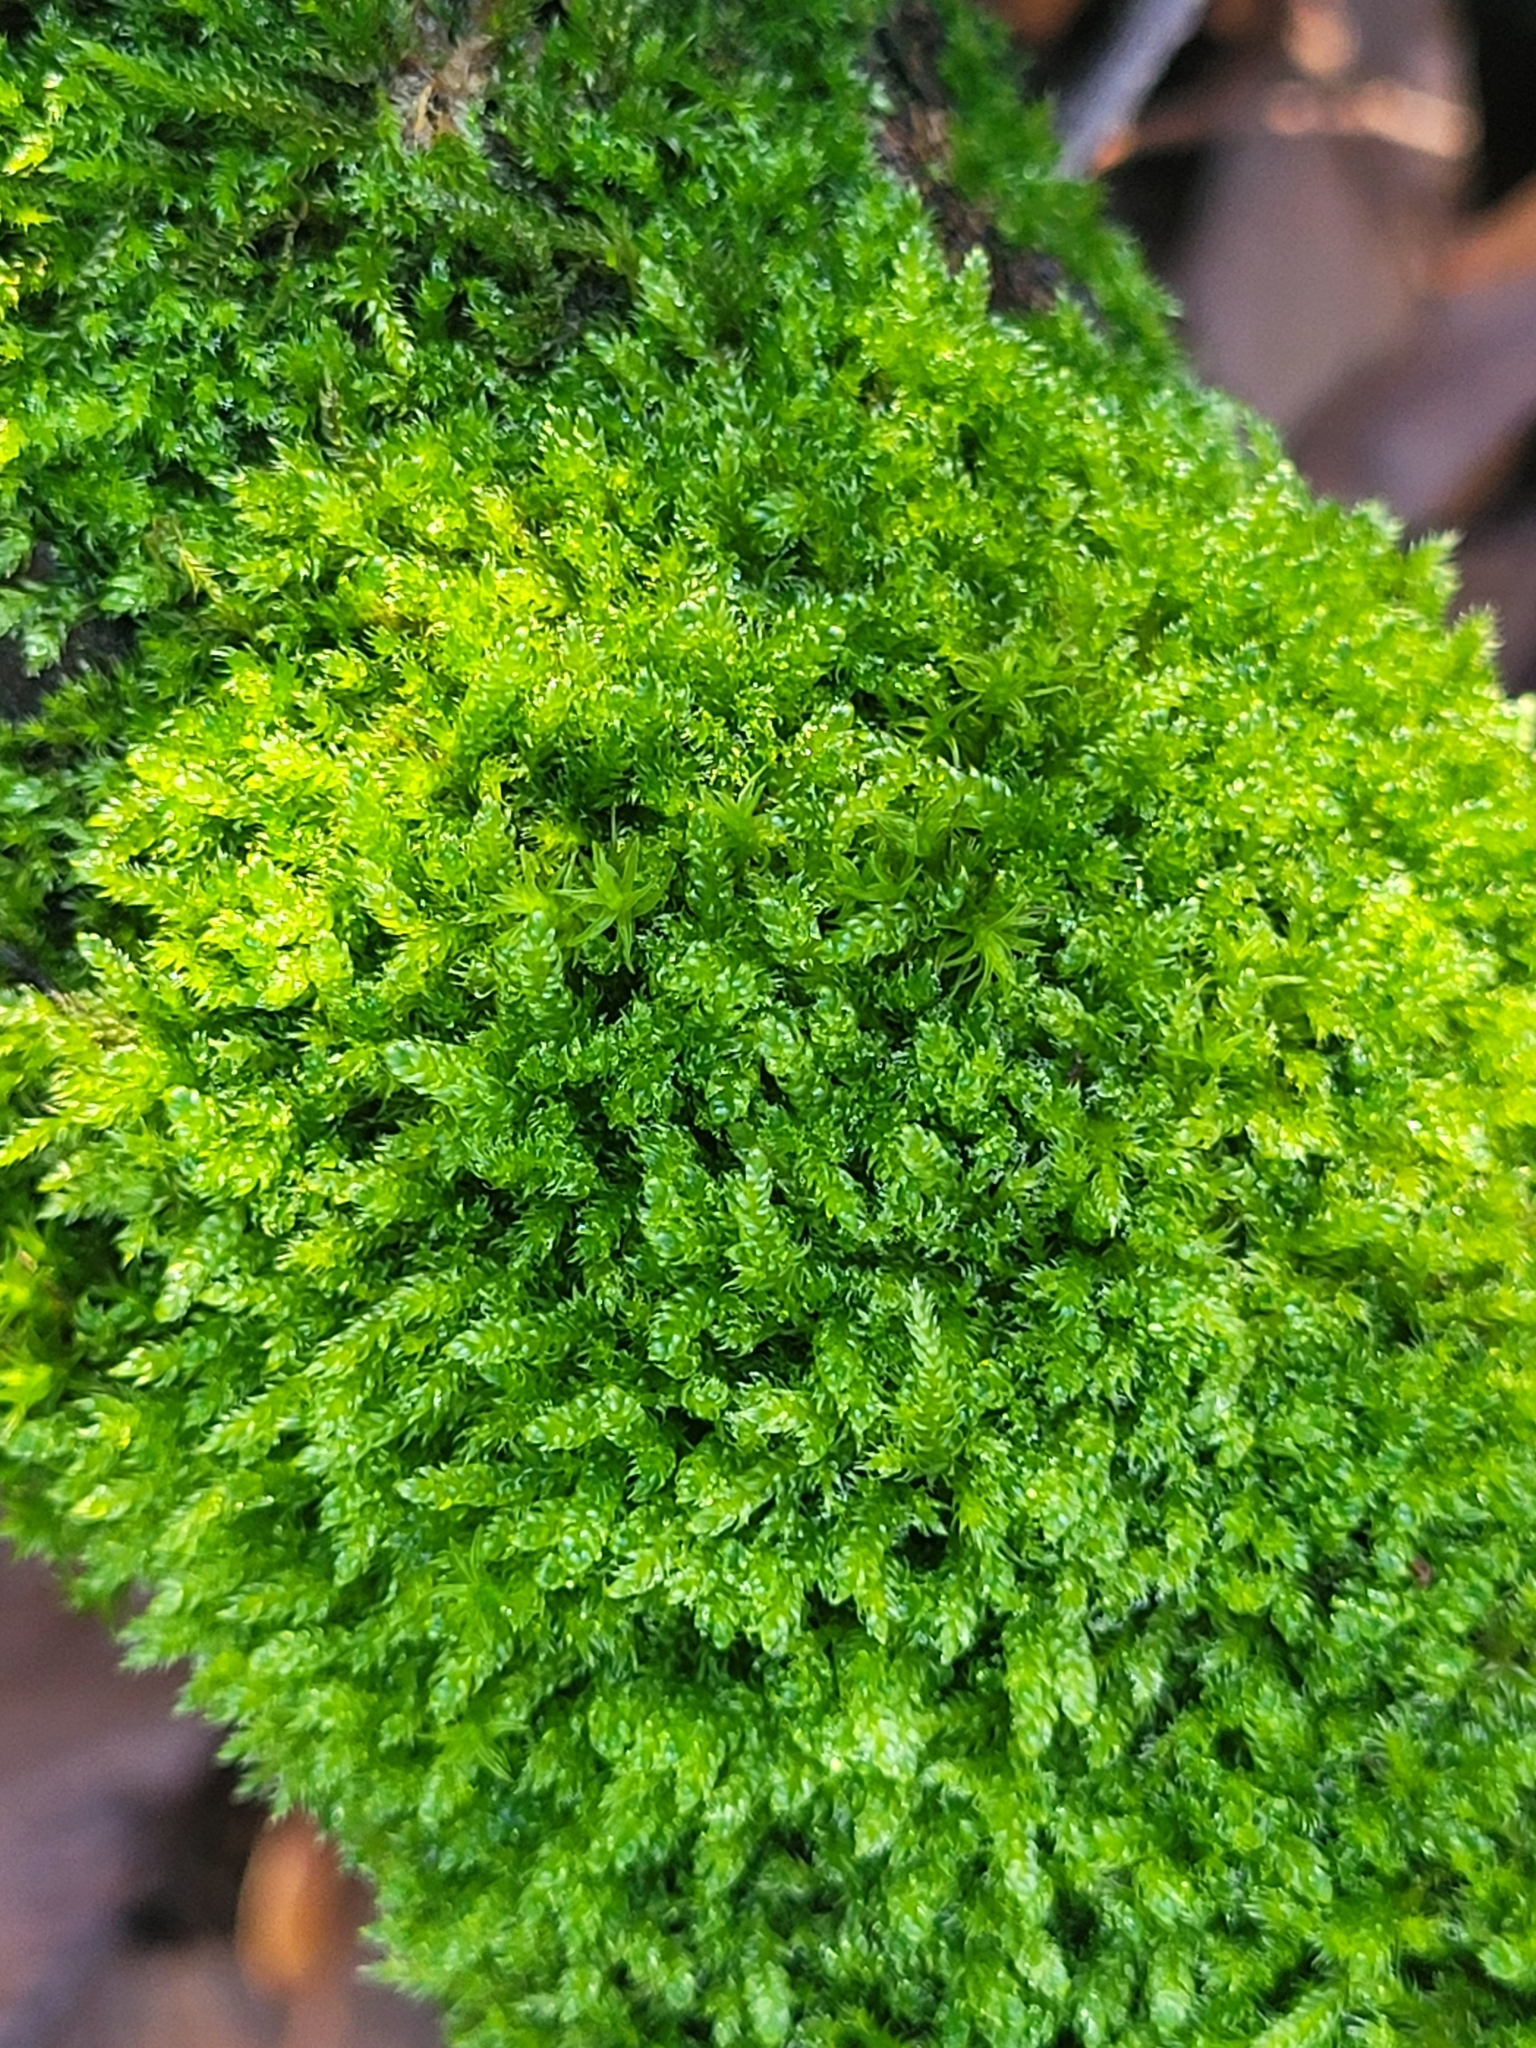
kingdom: Plantae
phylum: Bryophyta
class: Bryopsida
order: Hypnales
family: Hypnaceae
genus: Hypnum
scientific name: Hypnum cupressiforme
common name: Cypress-leaved plait-moss
